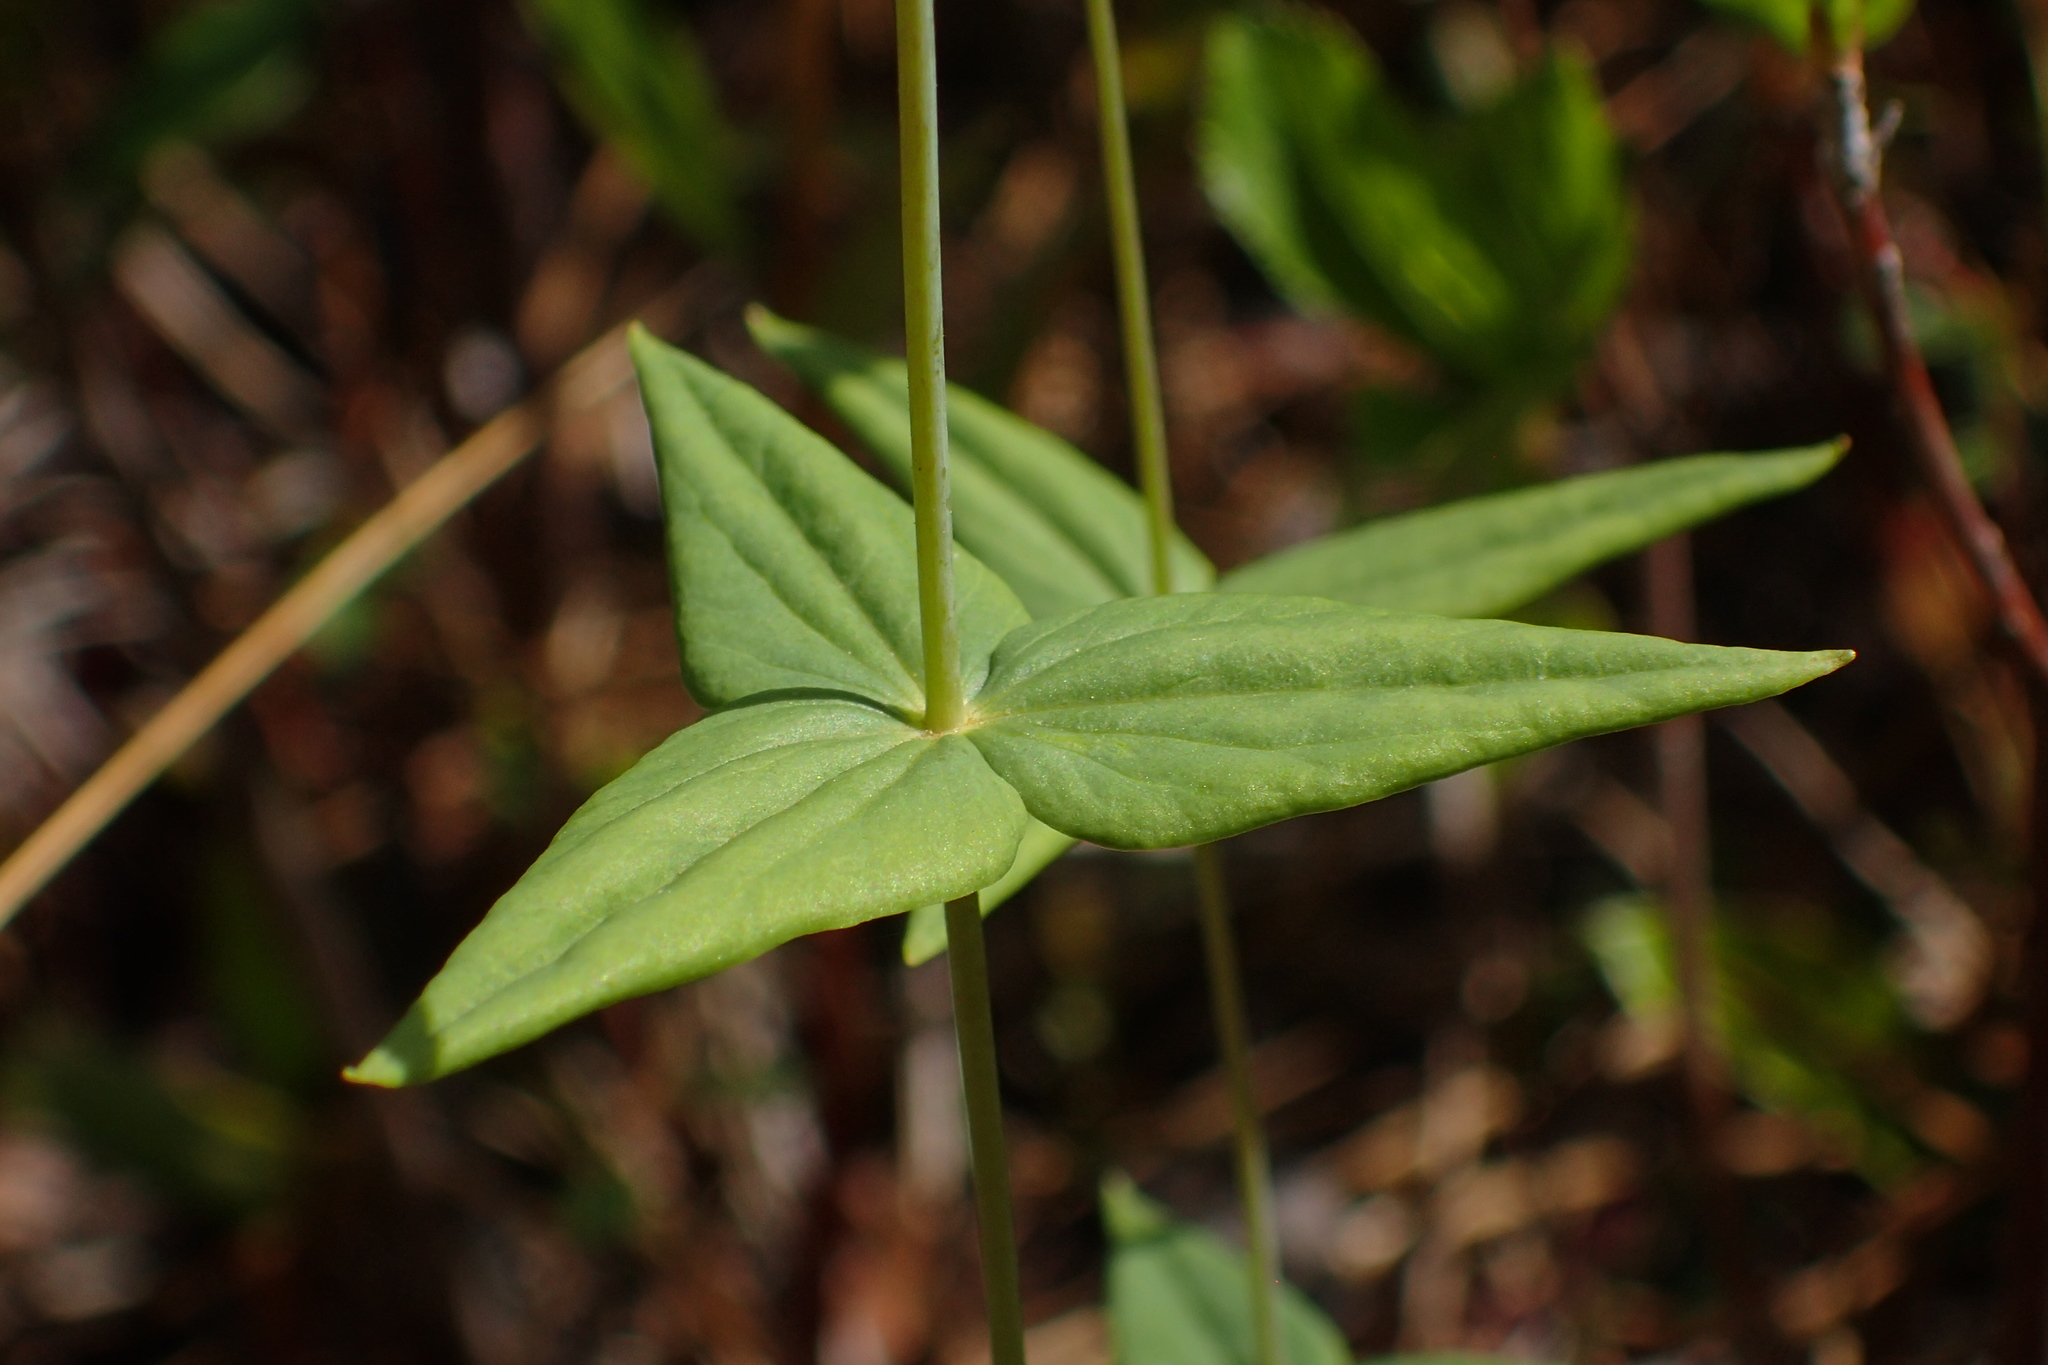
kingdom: Plantae
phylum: Tracheophyta
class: Magnoliopsida
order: Ericales
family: Primulaceae
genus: Lysimachia
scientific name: Lysimachia asperulifolia
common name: Rough-leaf loosestrife
